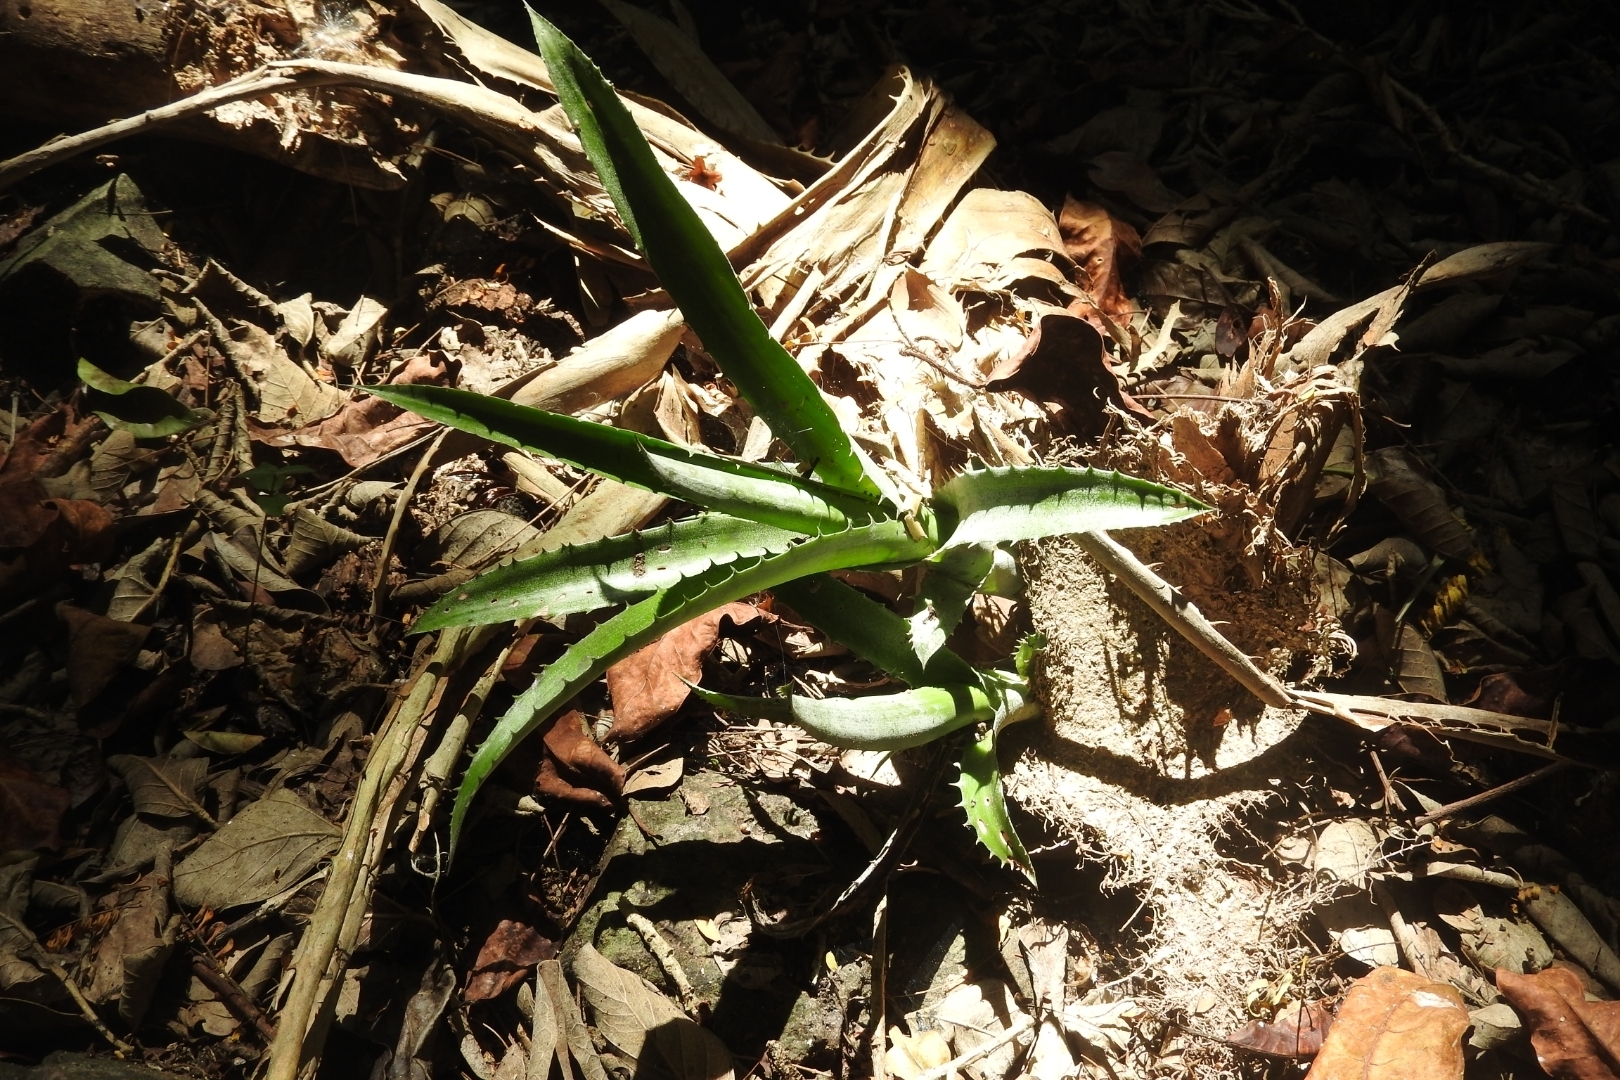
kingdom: Plantae
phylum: Tracheophyta
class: Liliopsida
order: Asparagales
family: Asparagaceae
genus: Agave
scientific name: Agave vivipara
